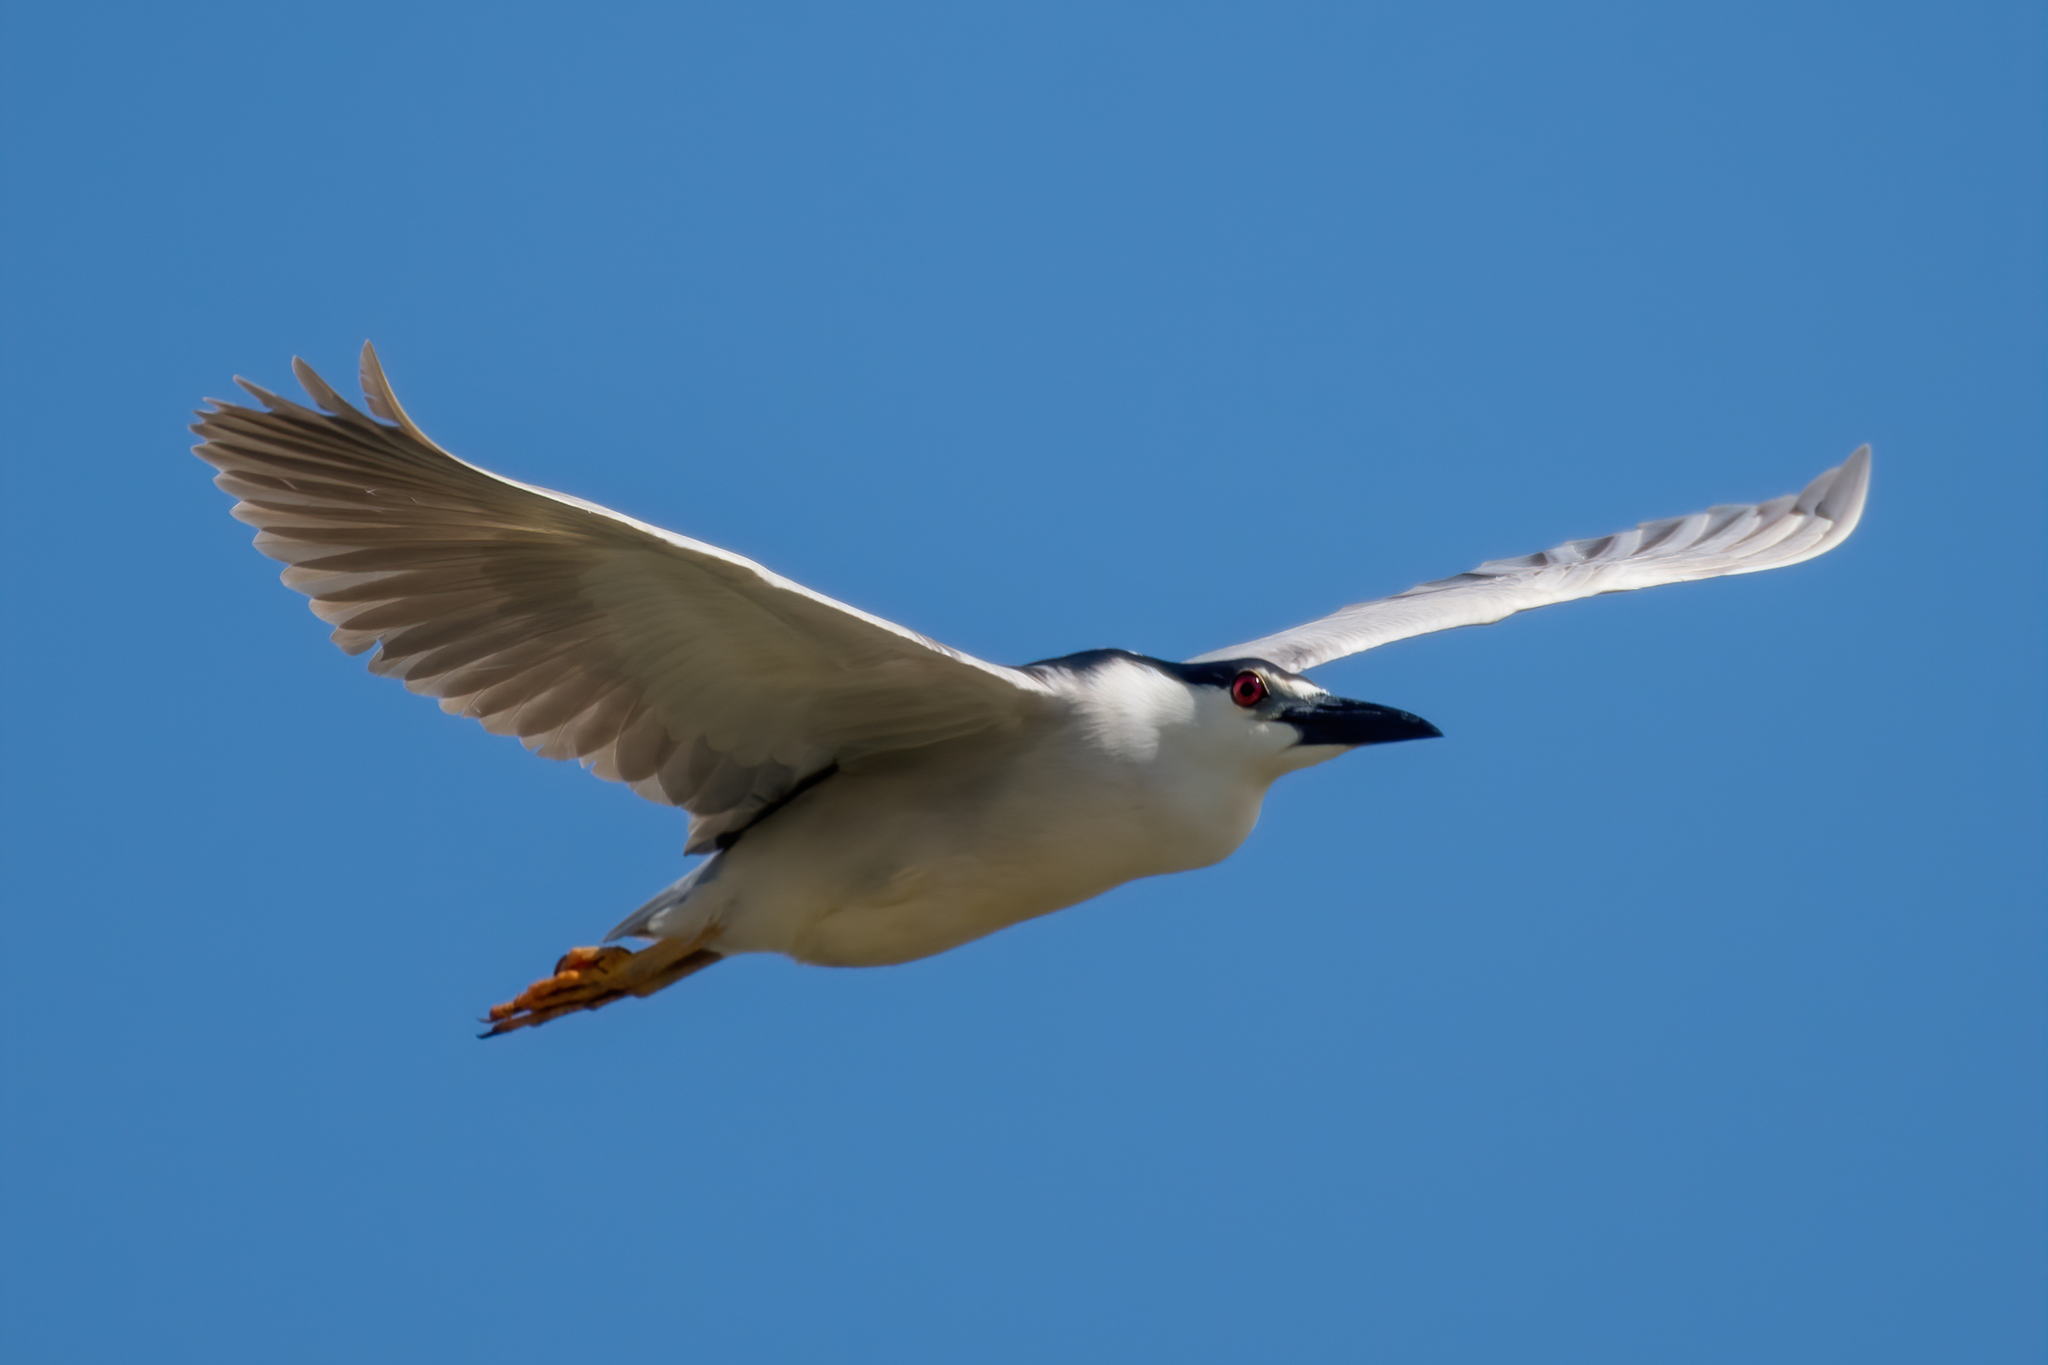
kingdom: Animalia
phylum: Chordata
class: Aves
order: Pelecaniformes
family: Ardeidae
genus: Nycticorax
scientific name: Nycticorax nycticorax
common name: Black-crowned night heron
